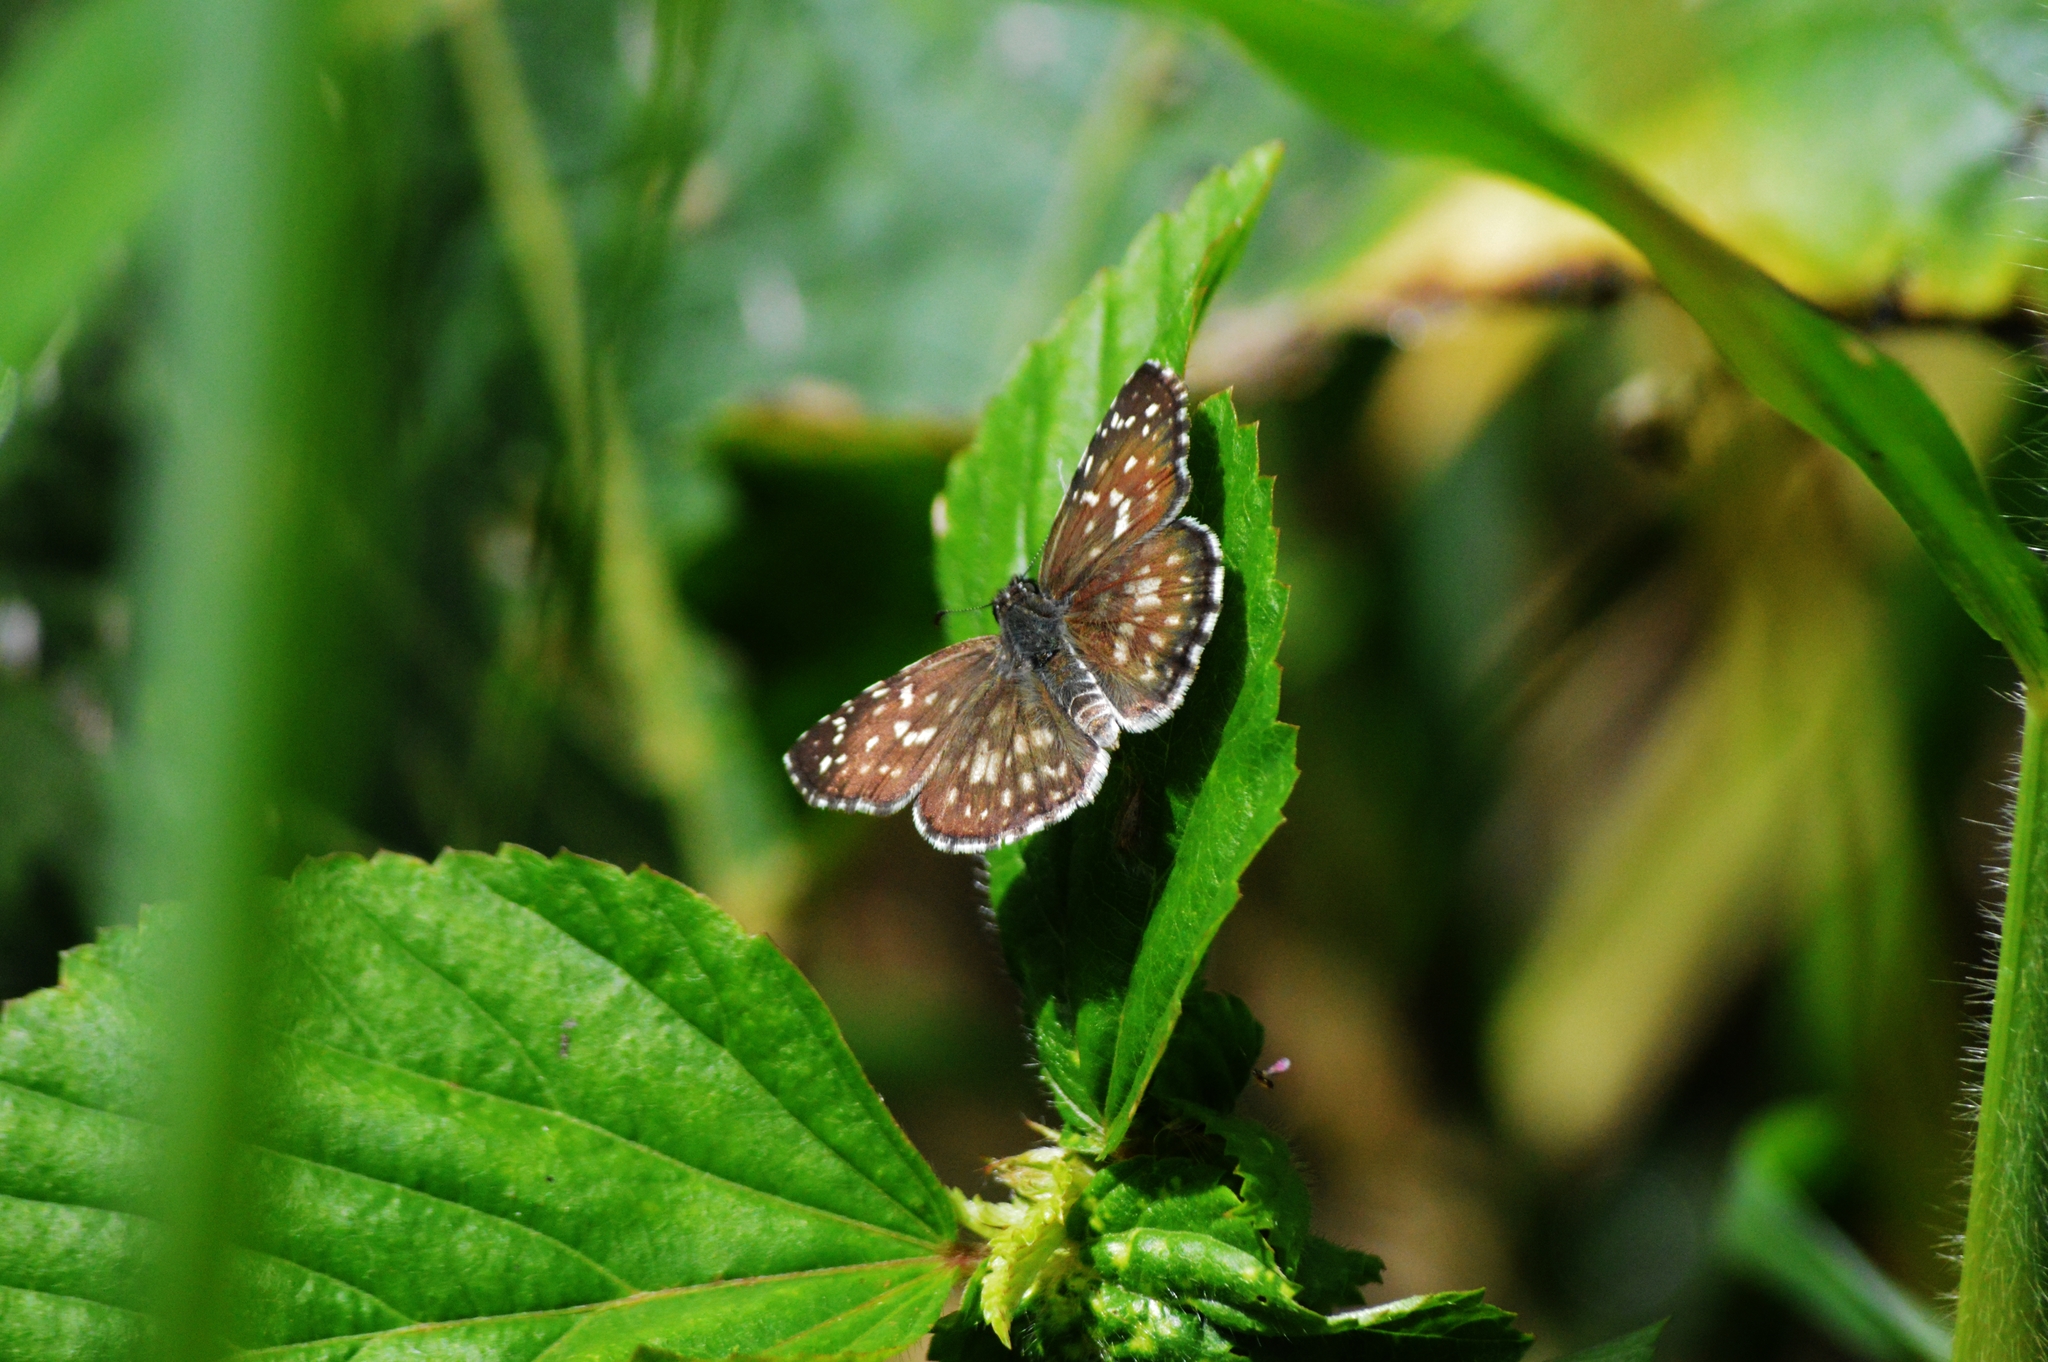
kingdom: Animalia
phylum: Arthropoda
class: Insecta
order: Lepidoptera
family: Hesperiidae
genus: Pyrgus
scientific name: Pyrgus oileus
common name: Tropical checkered-skipper
